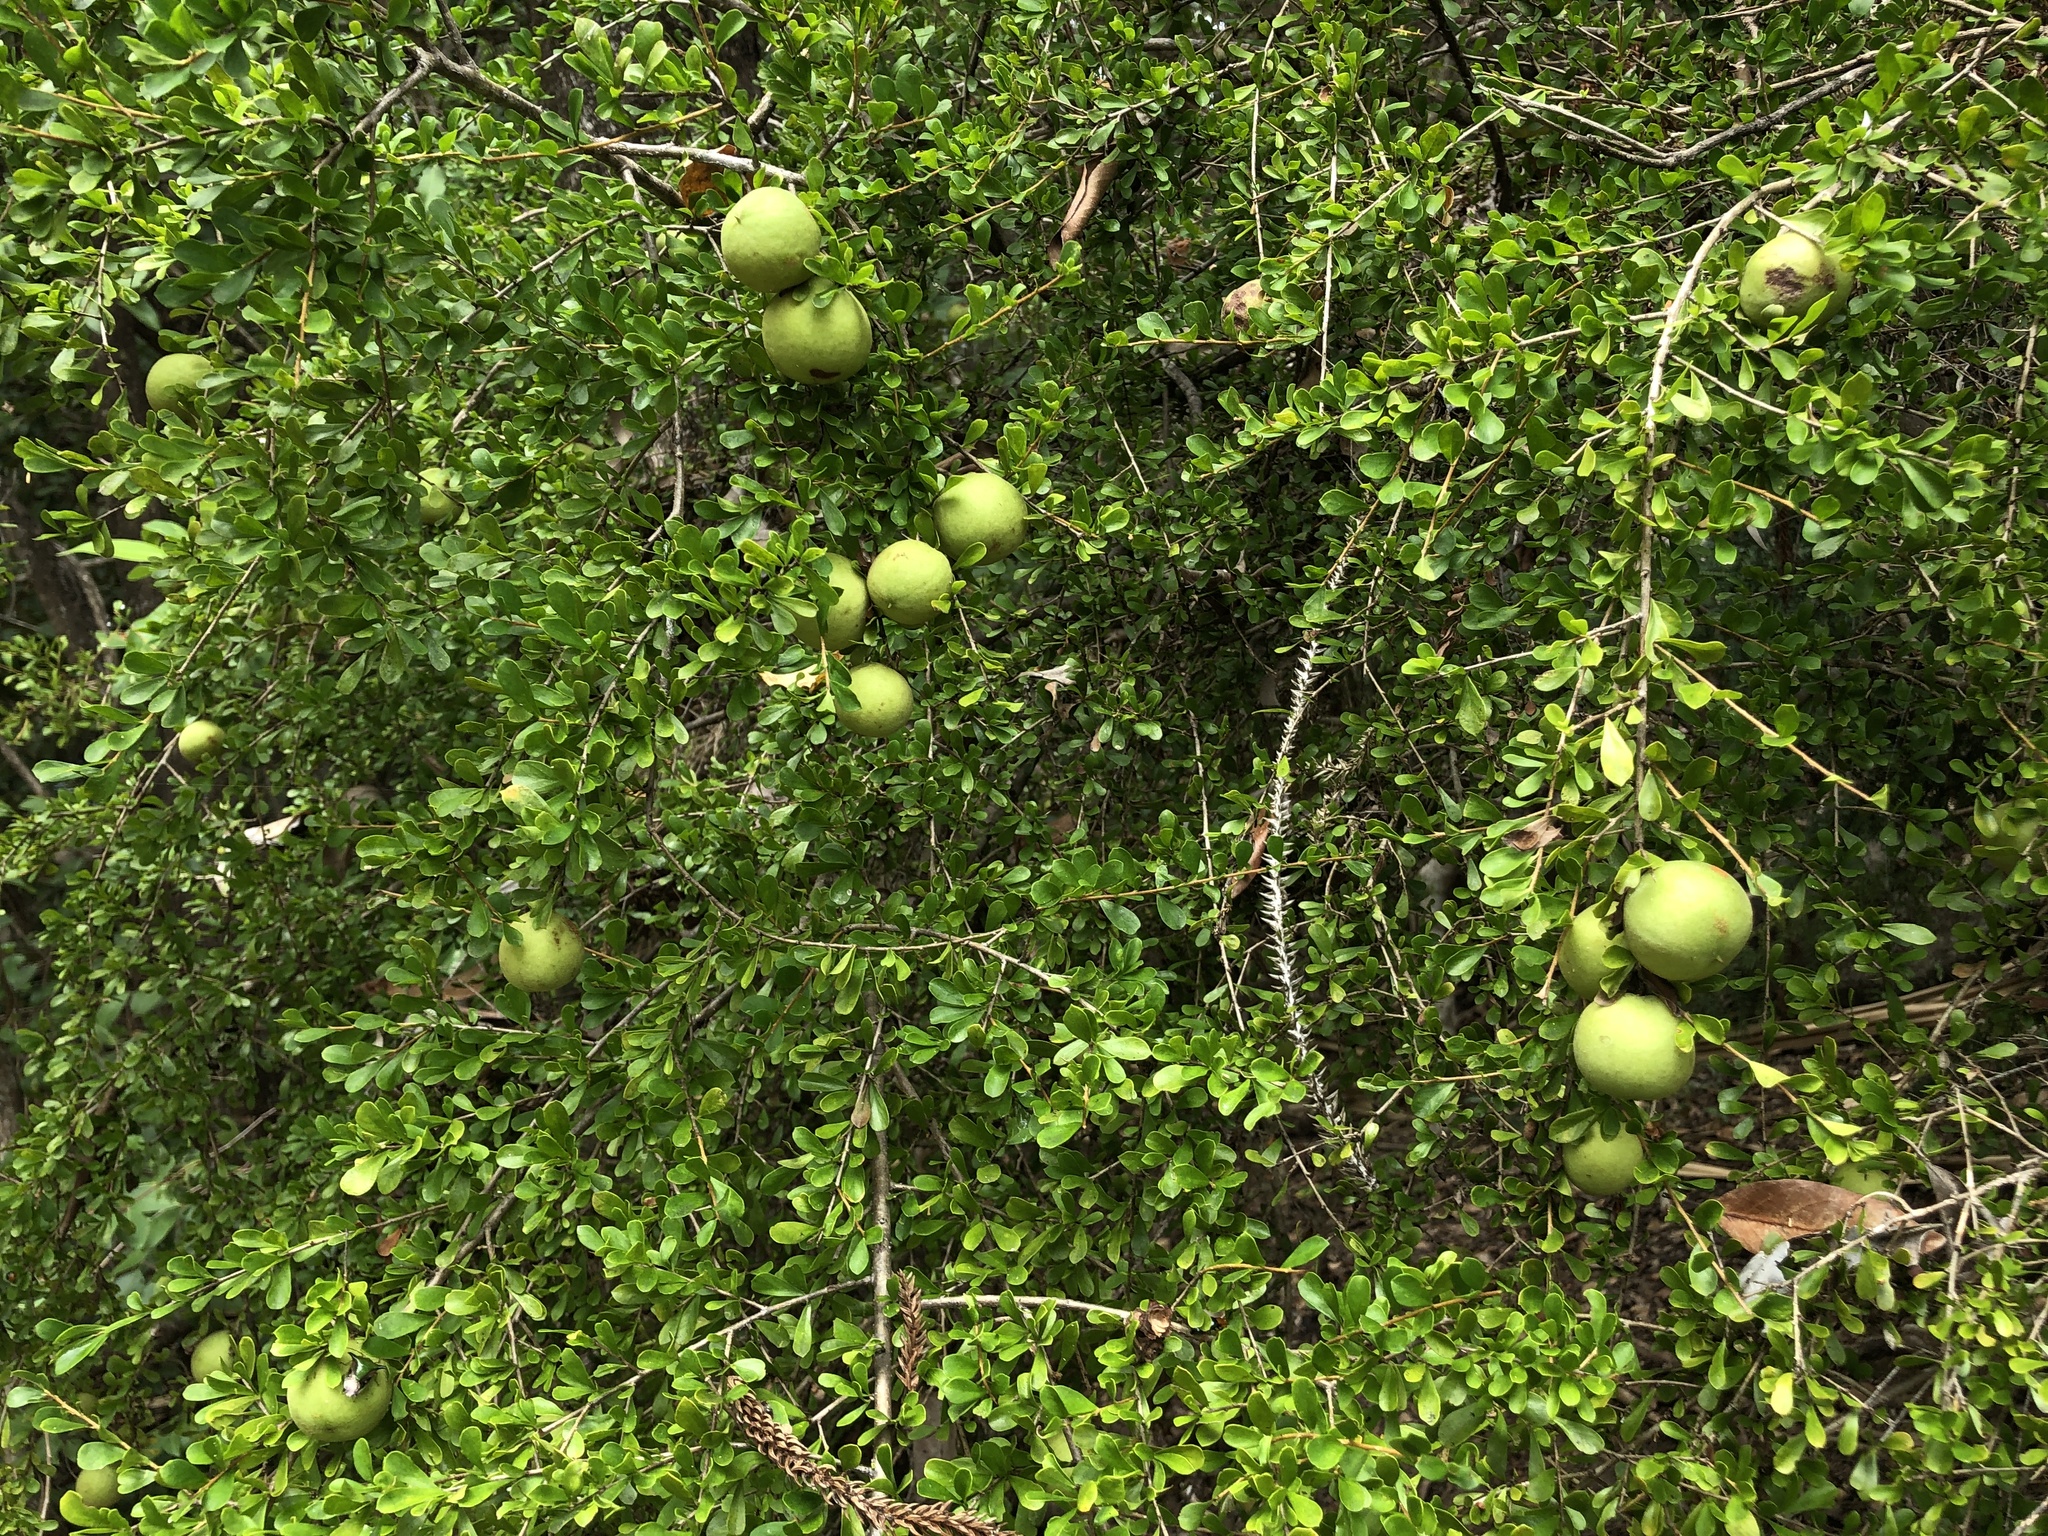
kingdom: Plantae
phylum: Tracheophyta
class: Magnoliopsida
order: Apiales
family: Pittosporaceae
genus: Pittosporum
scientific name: Pittosporum spinescens
